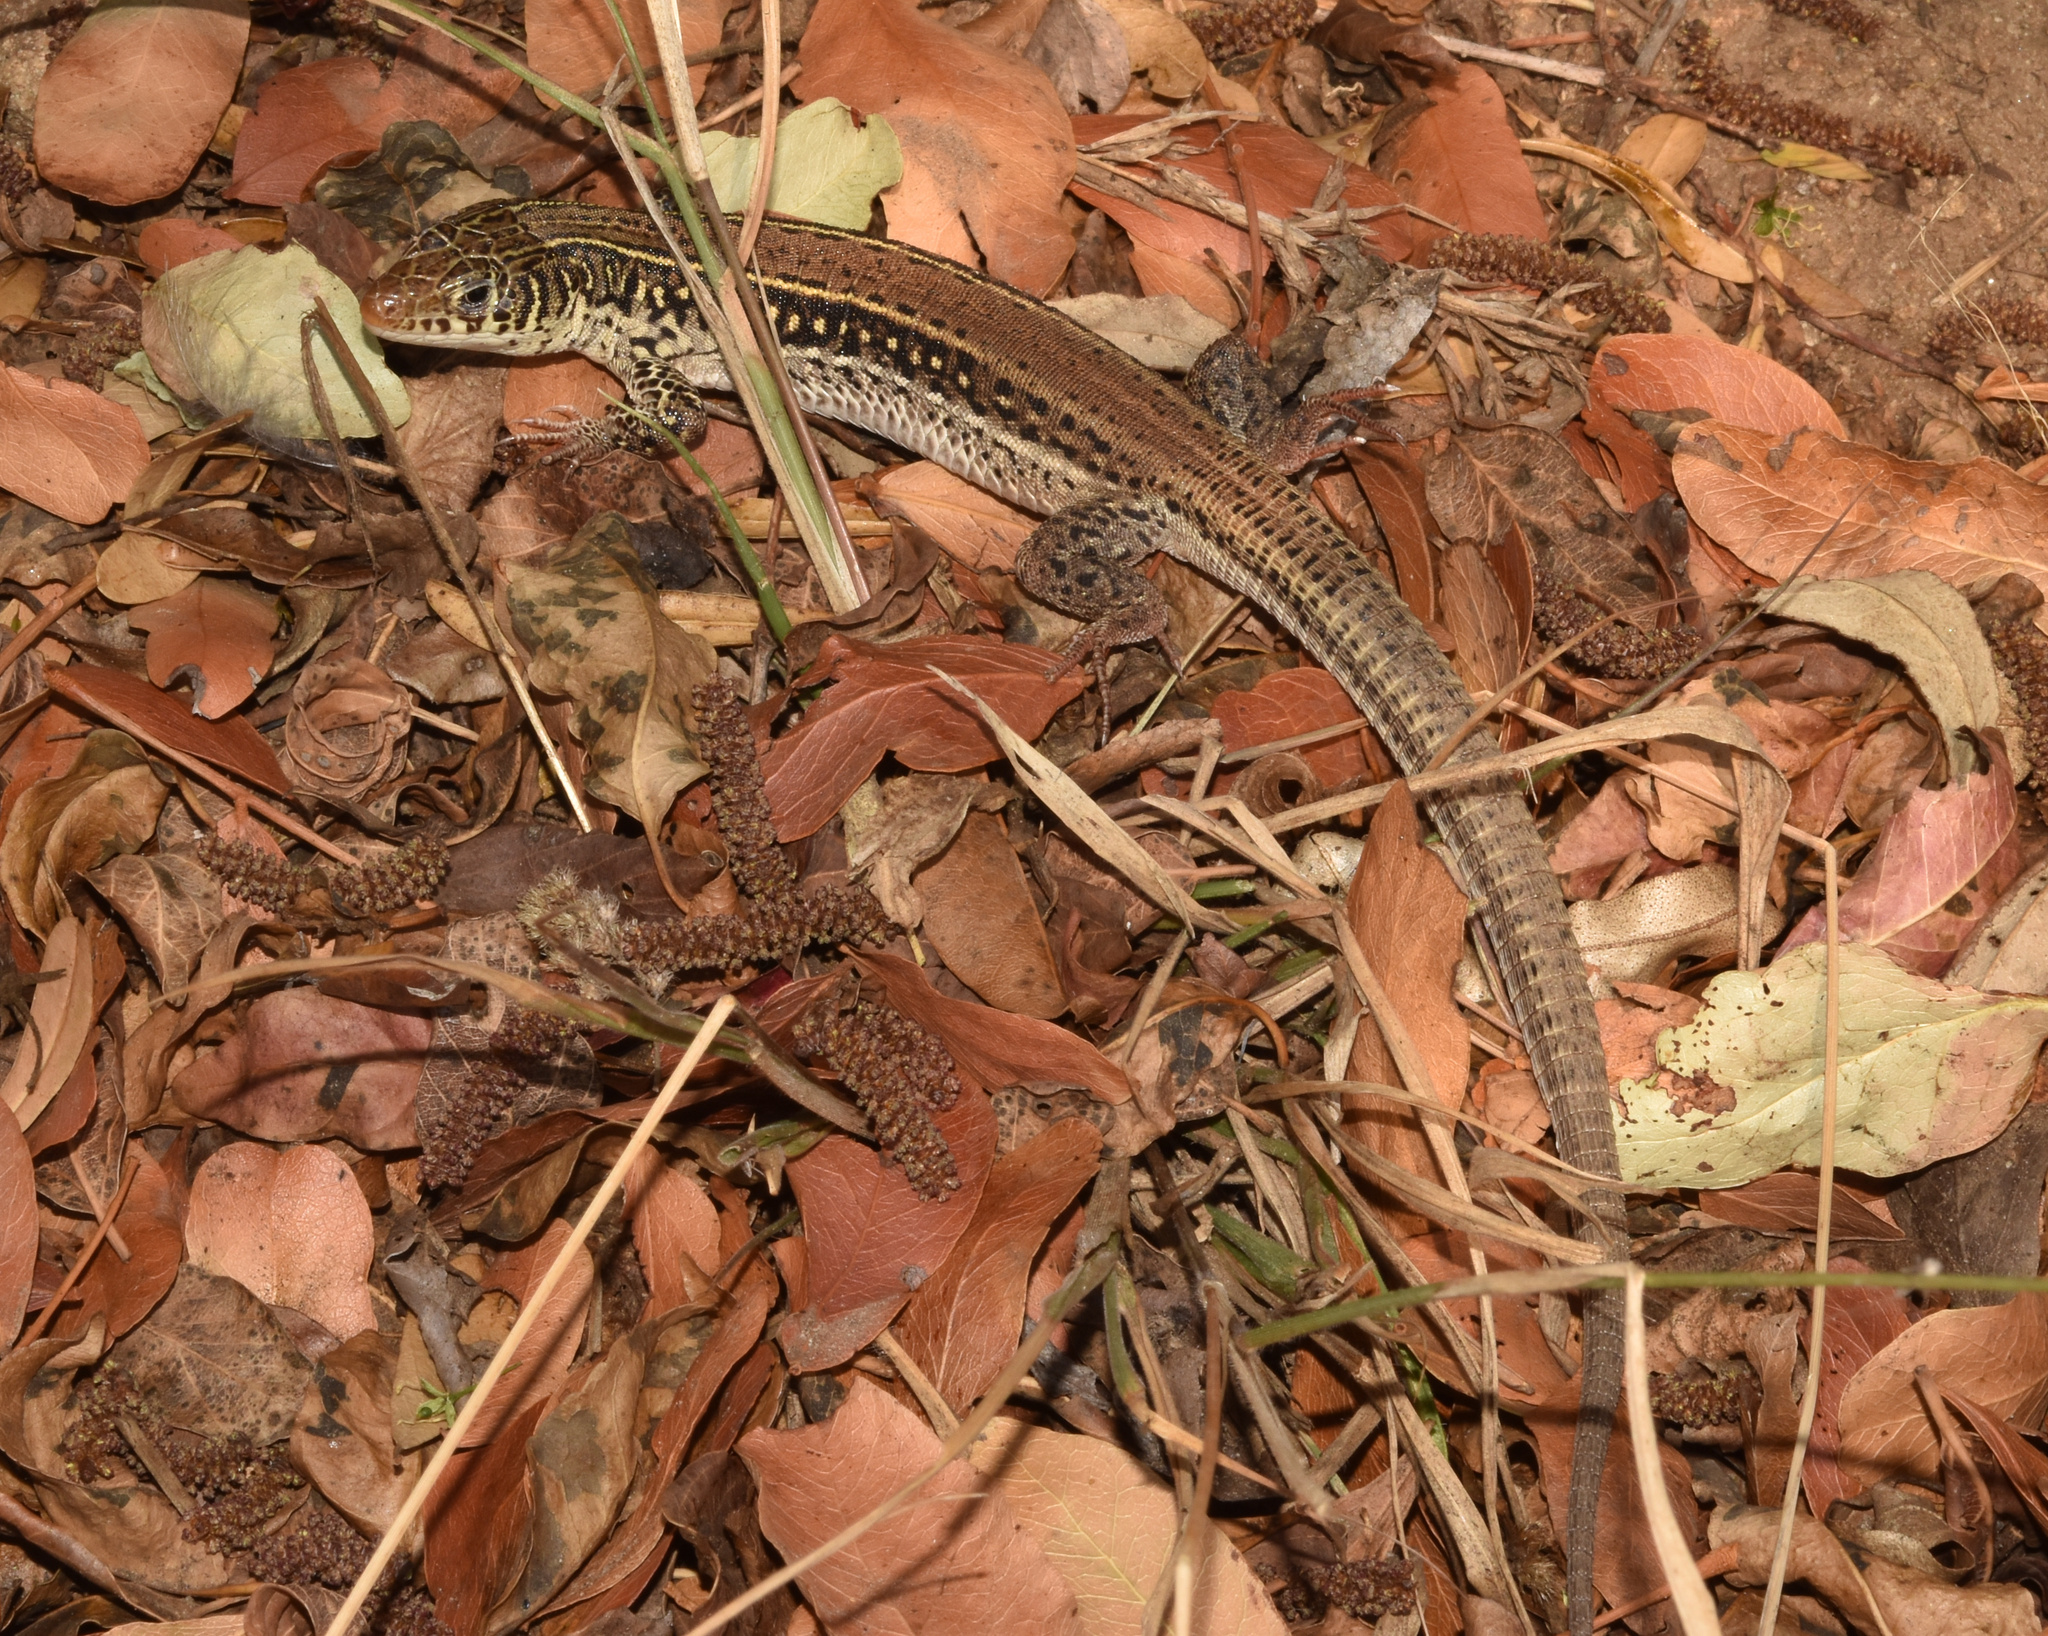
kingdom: Animalia
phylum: Chordata
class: Squamata
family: Lacertidae
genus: Nucras
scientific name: Nucras ornata
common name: Ornate sandveld lizard
